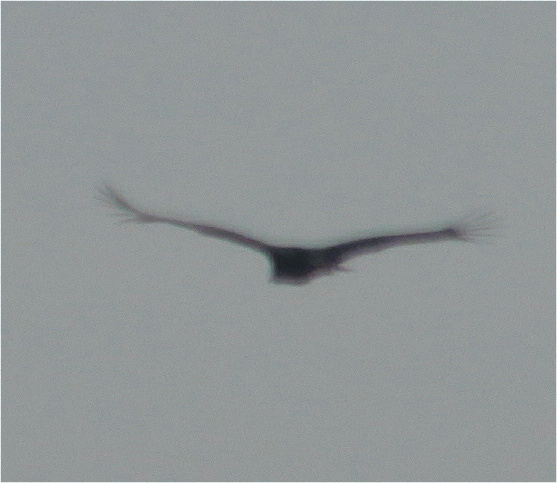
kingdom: Animalia
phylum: Chordata
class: Aves
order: Accipitriformes
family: Cathartidae
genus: Coragyps
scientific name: Coragyps atratus
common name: Black vulture
